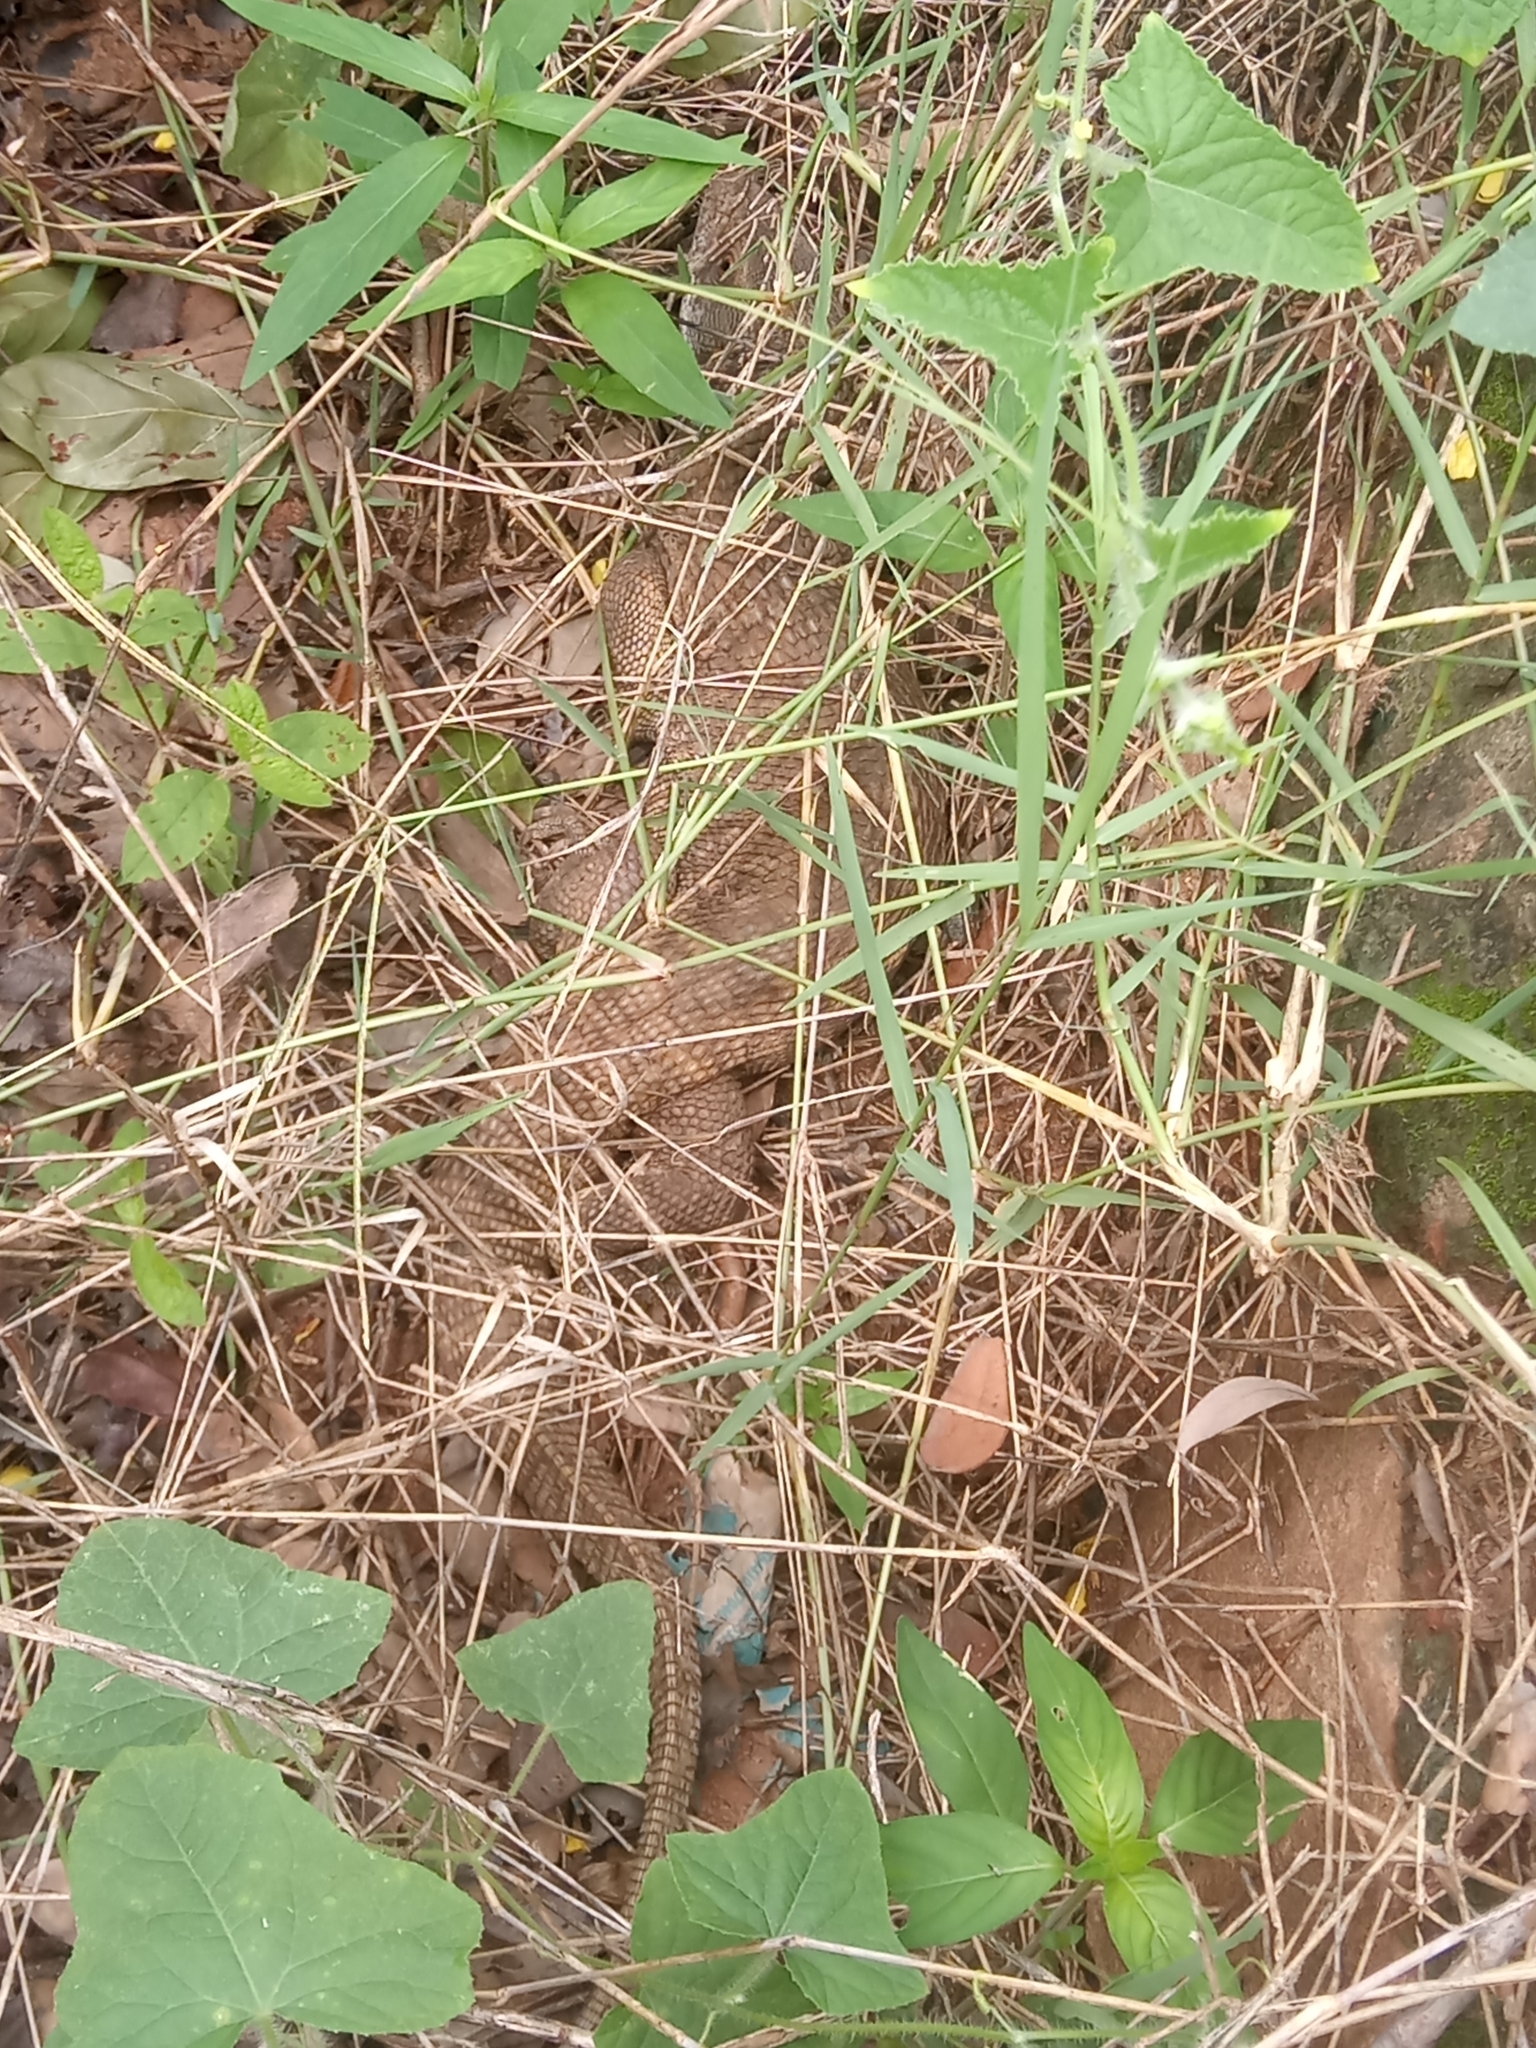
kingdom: Animalia
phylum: Chordata
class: Squamata
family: Varanidae
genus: Varanus
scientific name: Varanus exanthematicus
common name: Savannah monitor
